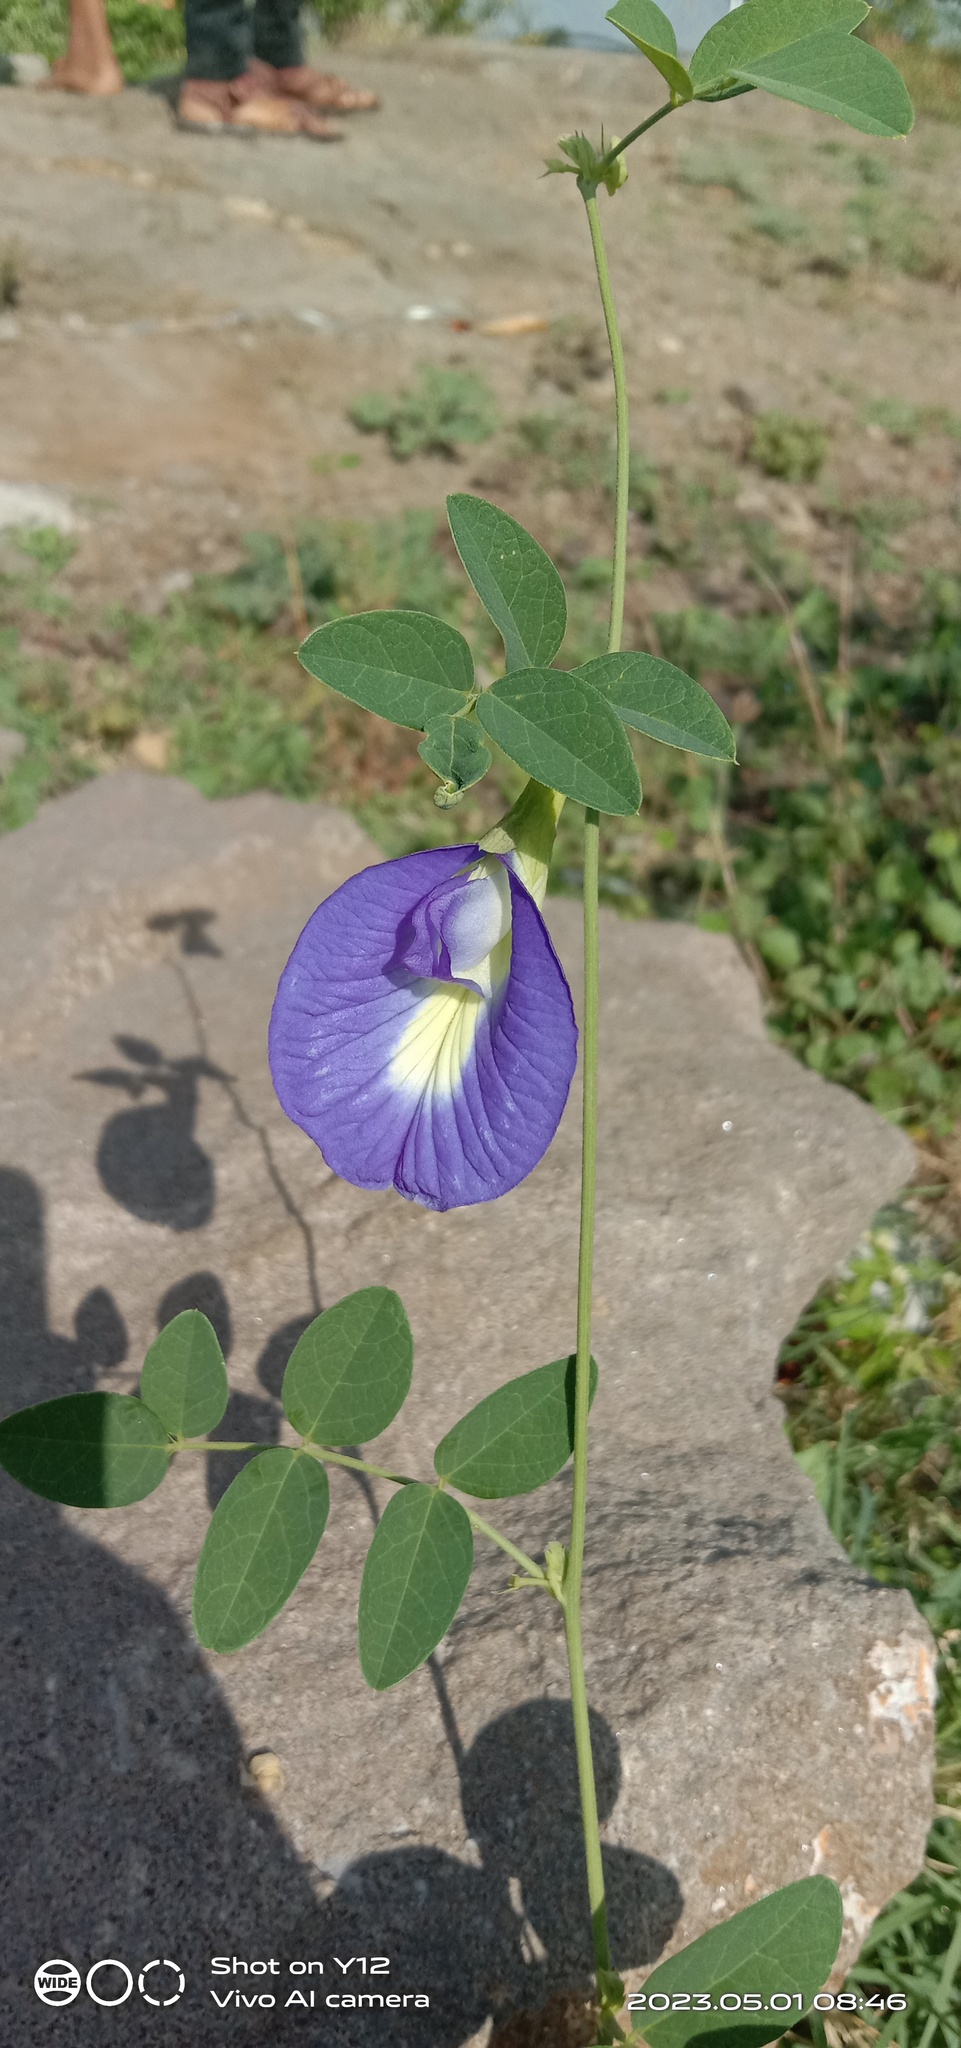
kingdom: Plantae
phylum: Tracheophyta
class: Magnoliopsida
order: Fabales
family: Fabaceae
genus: Clitoria
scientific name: Clitoria ternatea
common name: Asian pigeonwings
